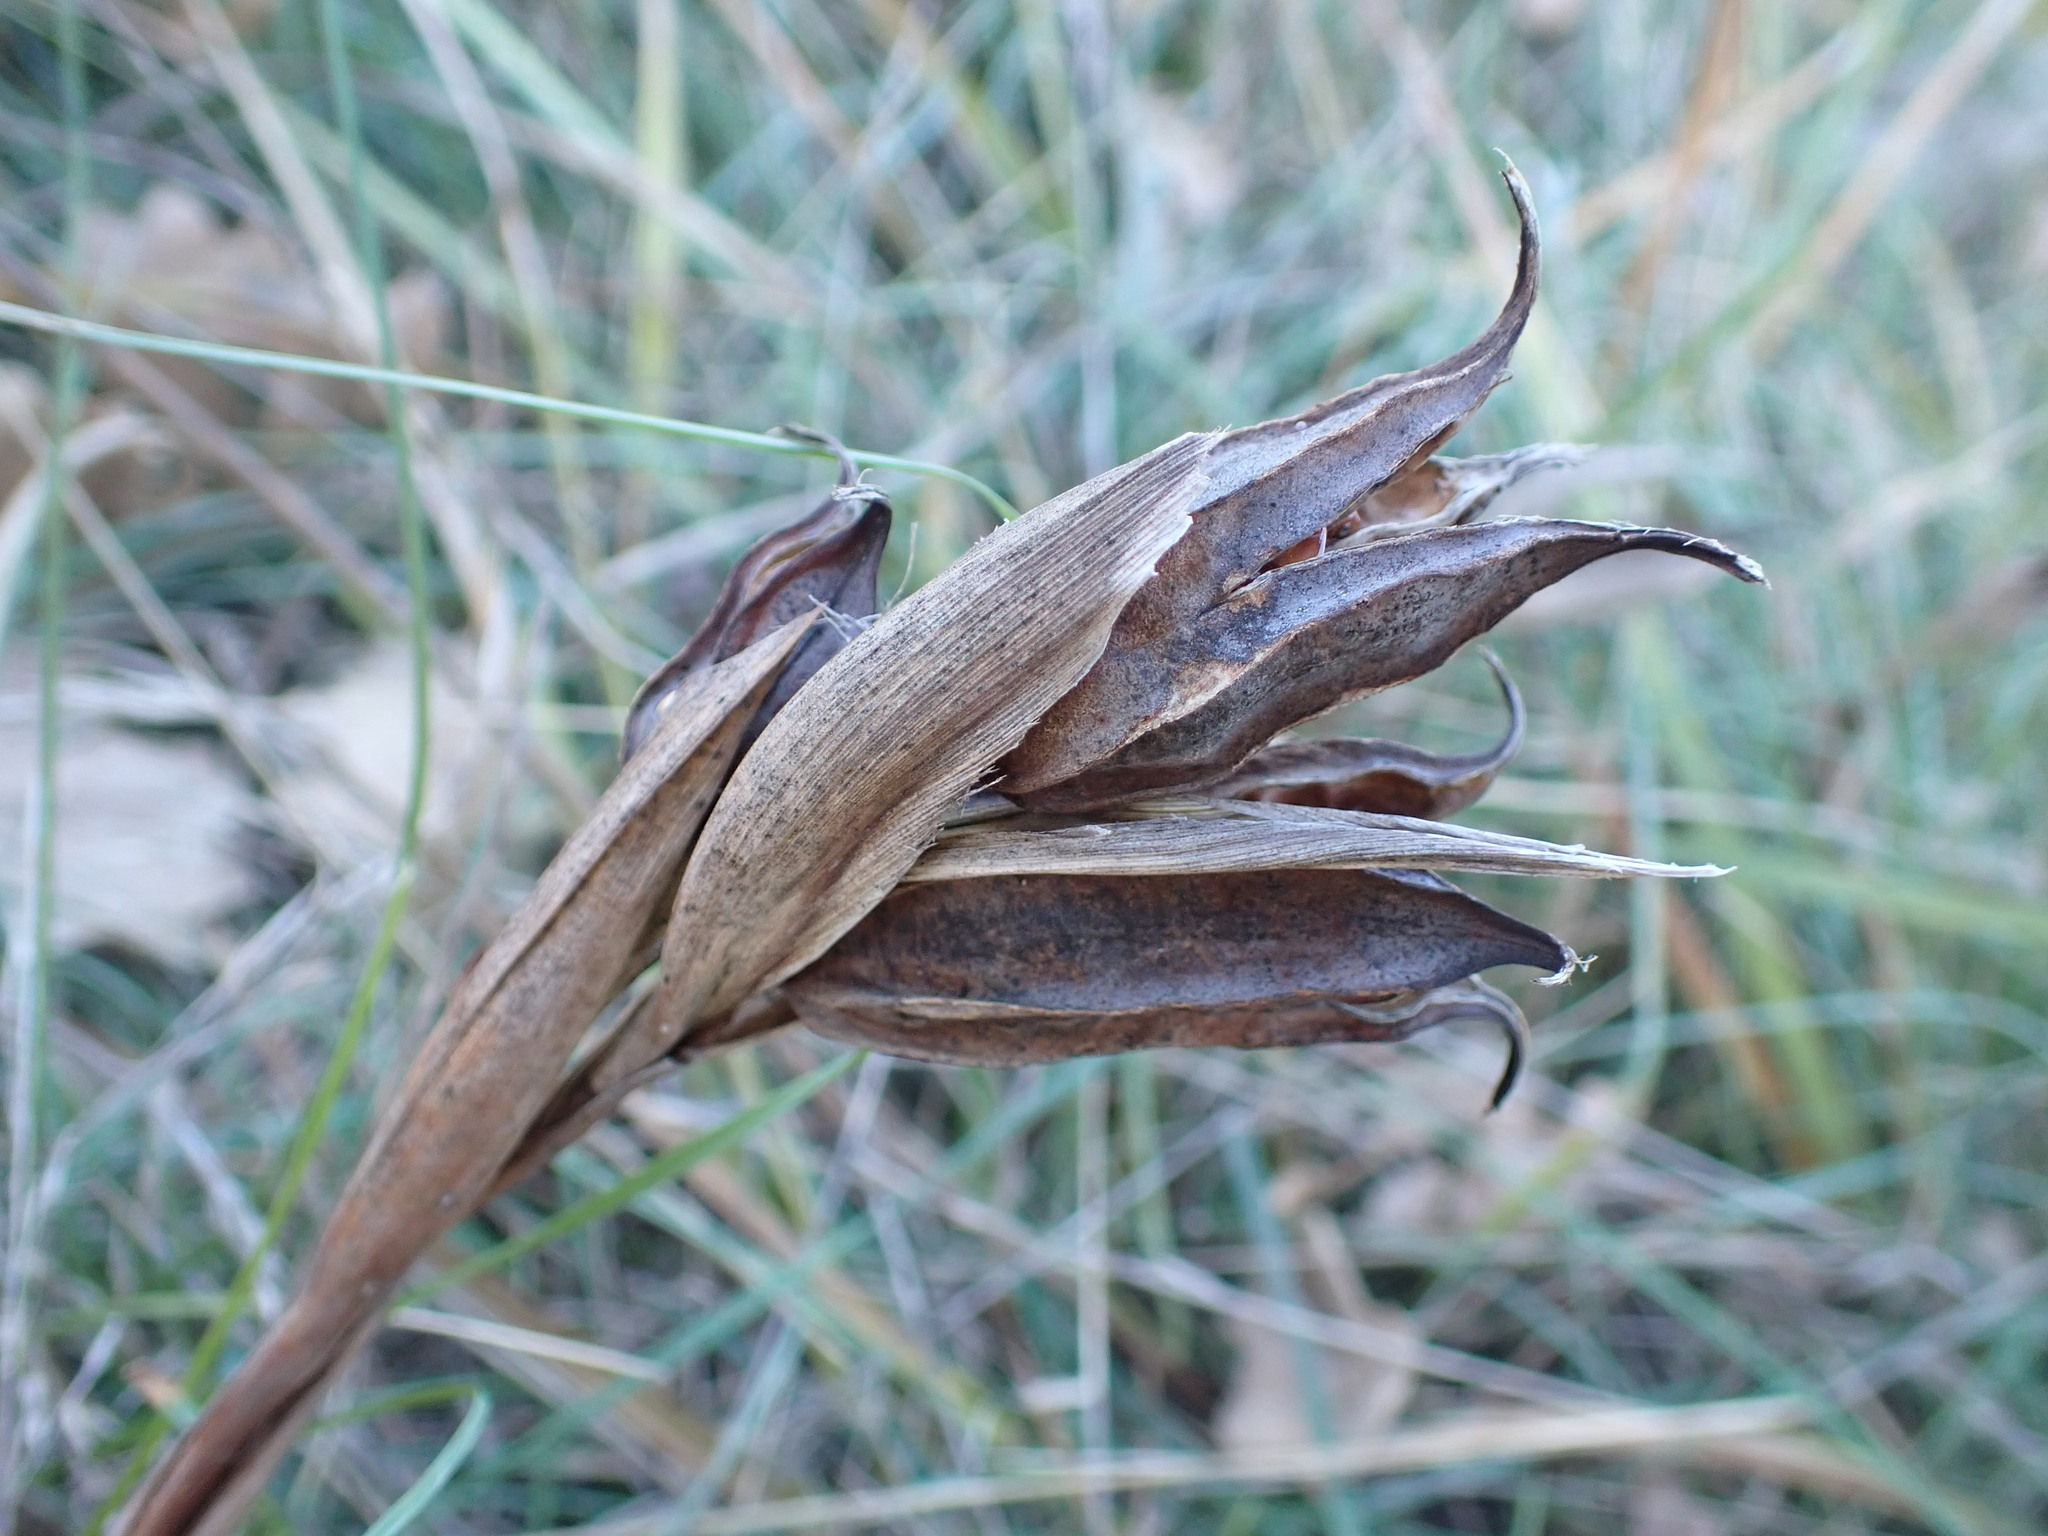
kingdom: Plantae
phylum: Tracheophyta
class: Liliopsida
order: Asparagales
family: Iridaceae
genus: Iris
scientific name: Iris reichenbachiana
